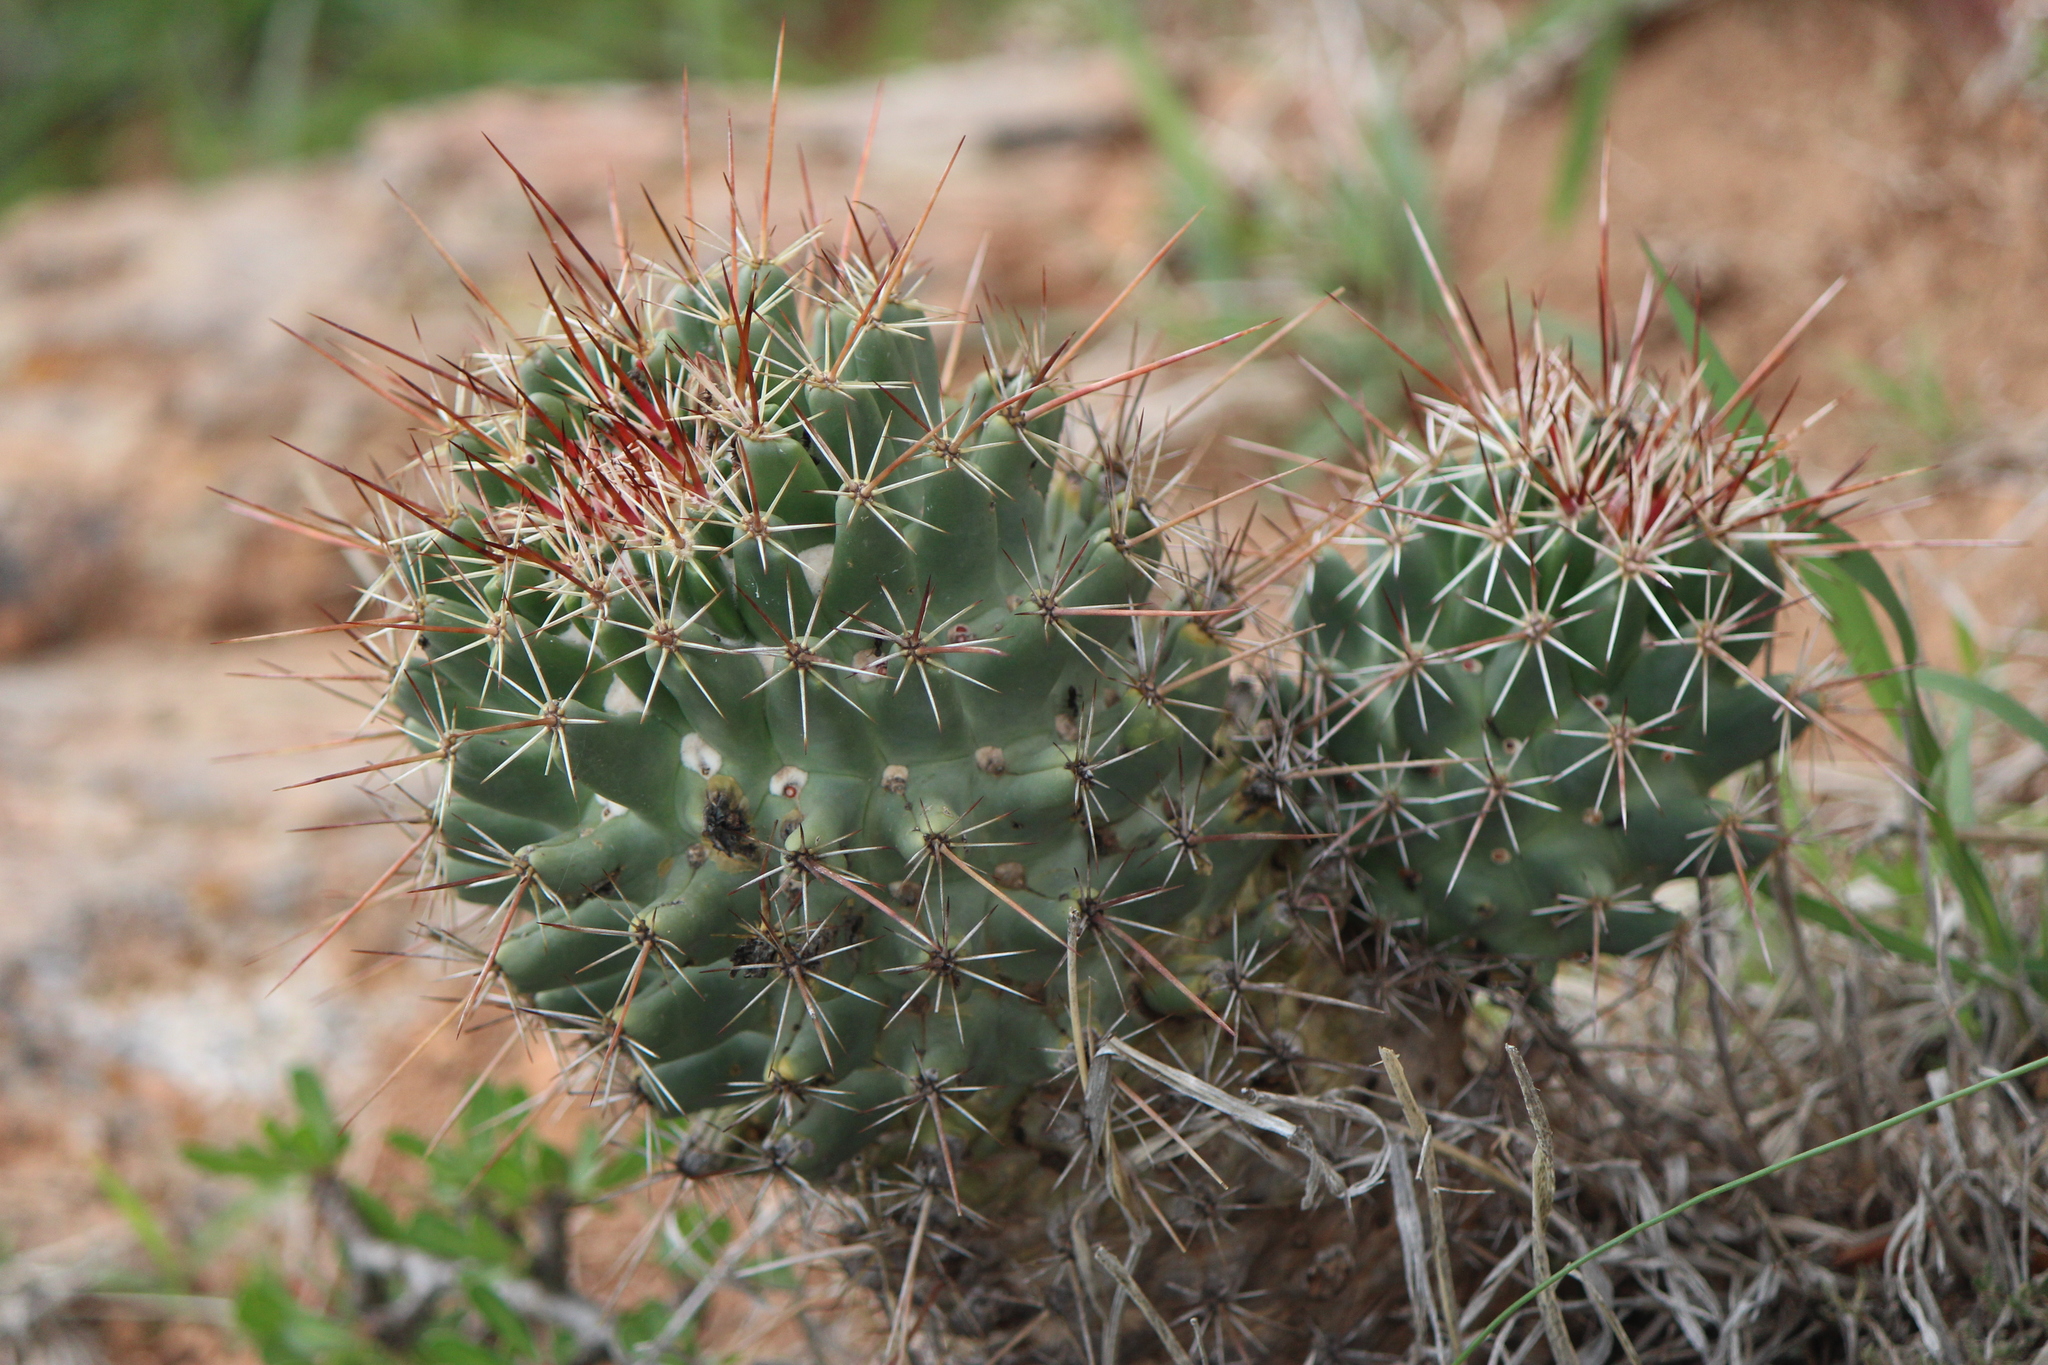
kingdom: Plantae
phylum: Tracheophyta
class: Magnoliopsida
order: Caryophyllales
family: Cactaceae
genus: Coryphantha
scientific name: Coryphantha octacantha
